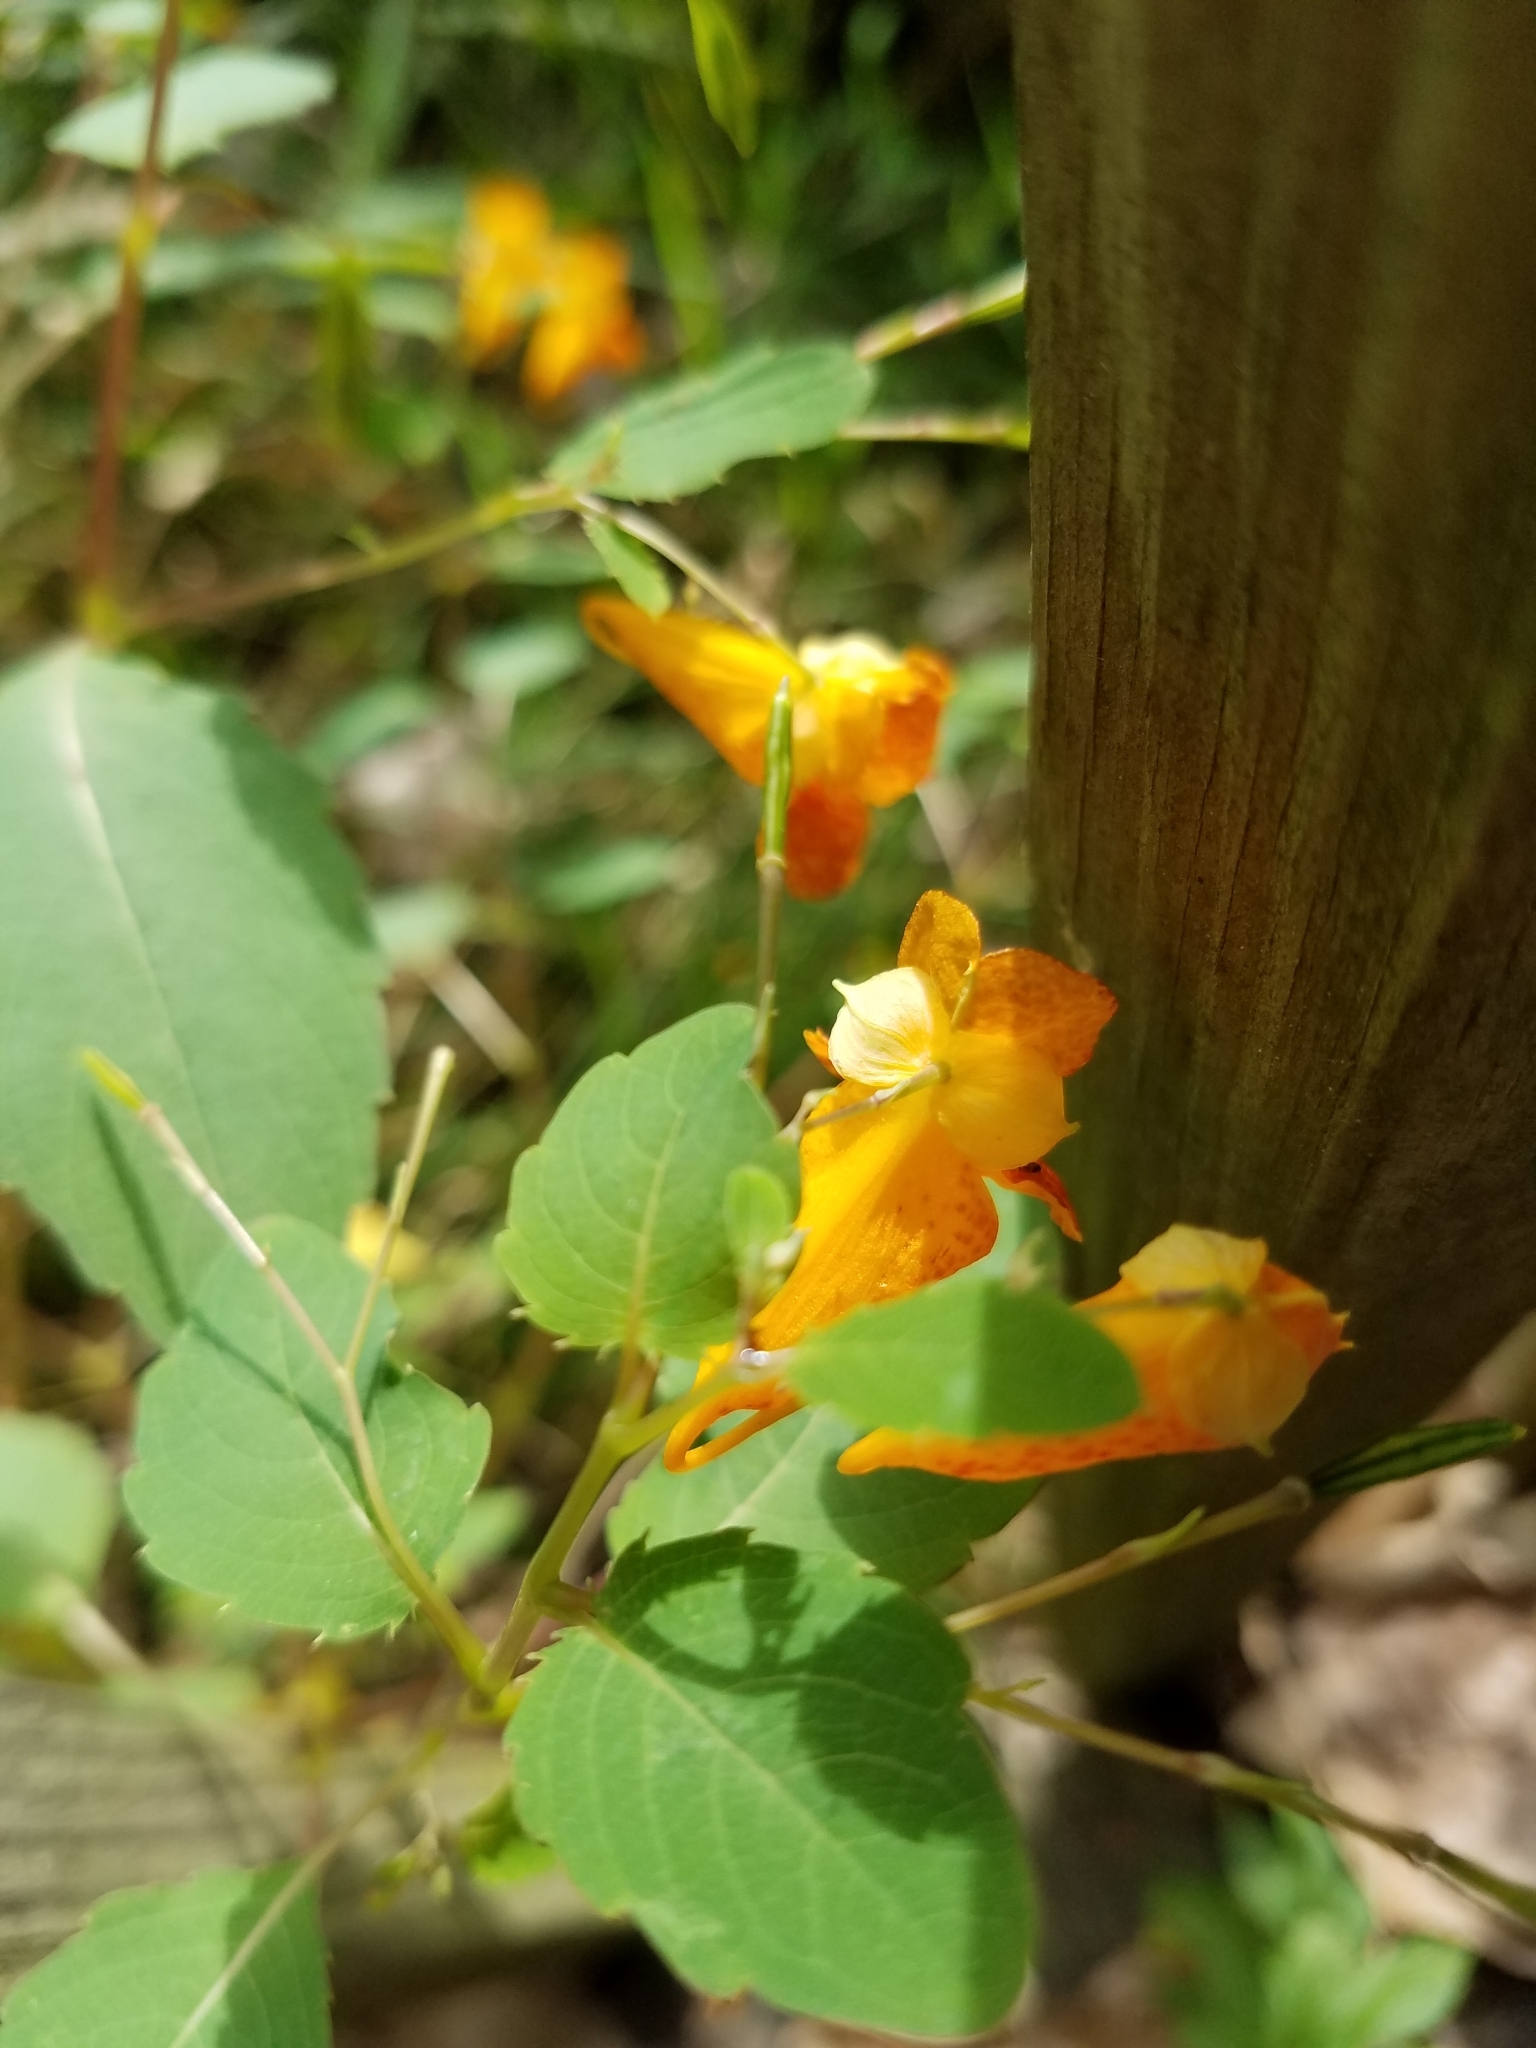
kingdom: Plantae
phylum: Tracheophyta
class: Magnoliopsida
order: Ericales
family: Balsaminaceae
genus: Impatiens
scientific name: Impatiens capensis
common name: Orange balsam
